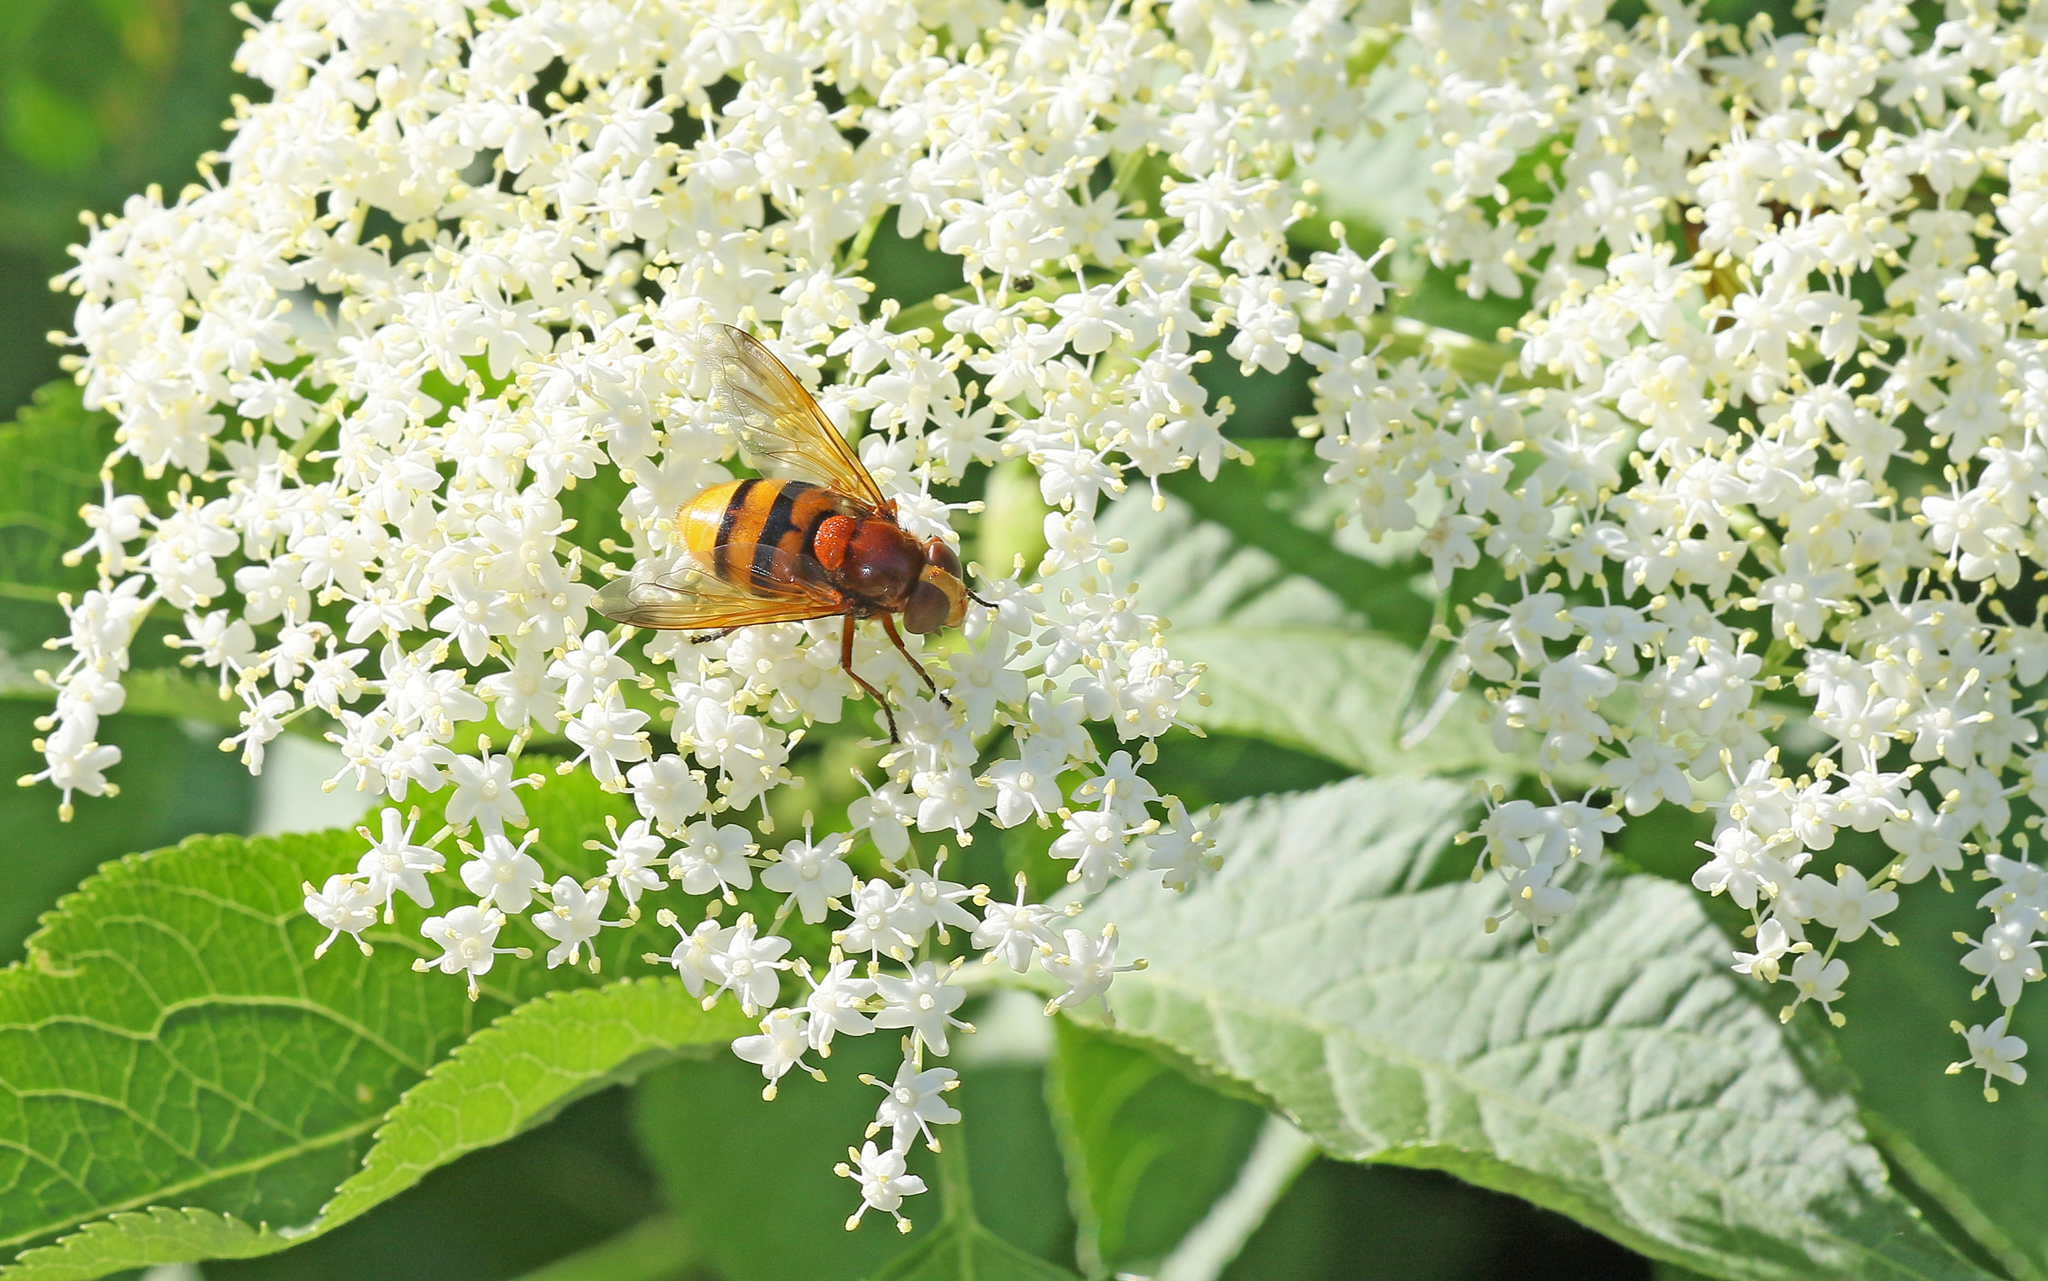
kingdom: Animalia
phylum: Arthropoda
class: Insecta
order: Diptera
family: Syrphidae
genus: Volucella
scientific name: Volucella zonaria
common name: Hornet hoverfly
